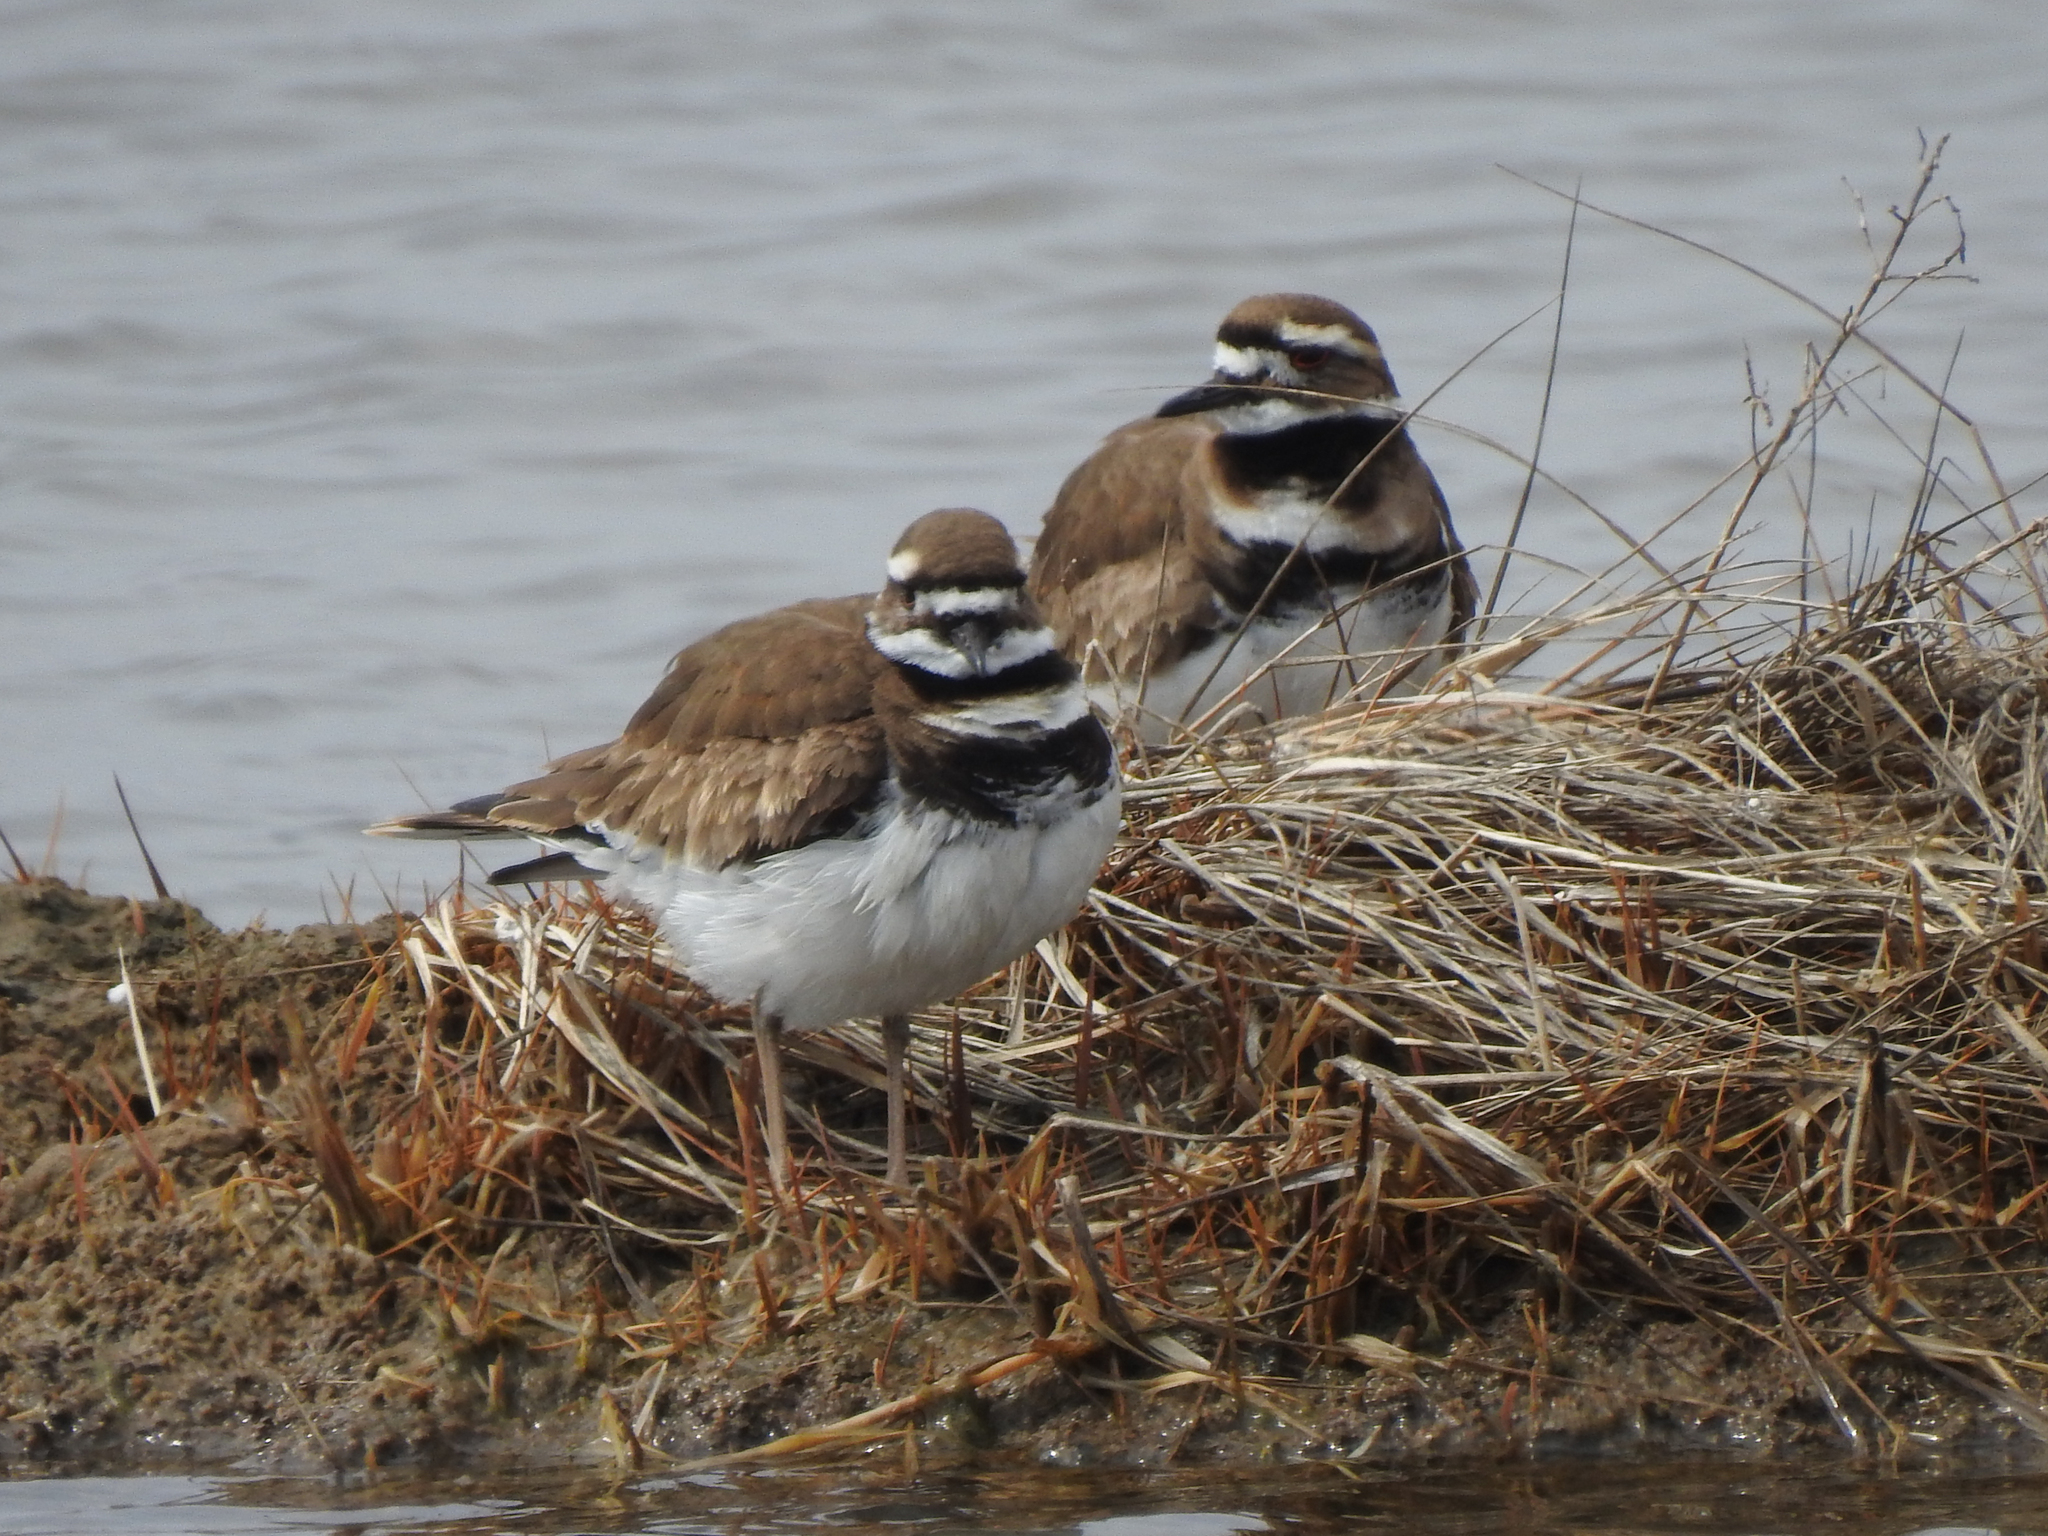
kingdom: Animalia
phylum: Chordata
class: Aves
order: Charadriiformes
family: Charadriidae
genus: Charadrius
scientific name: Charadrius vociferus
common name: Killdeer
